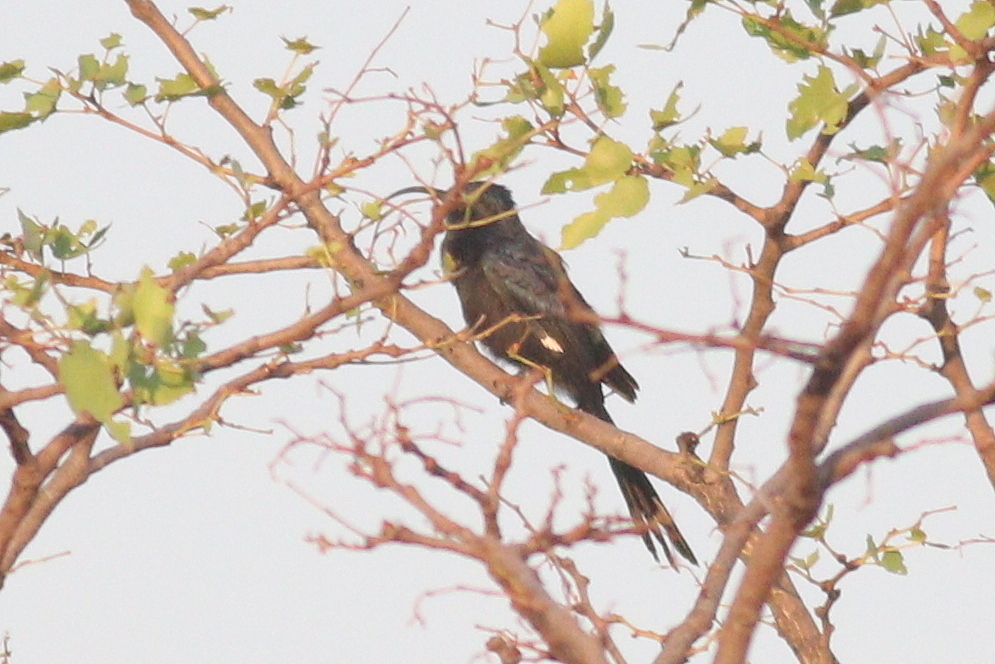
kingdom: Animalia
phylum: Chordata
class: Aves
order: Bucerotiformes
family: Phoeniculidae
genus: Rhinopomastus
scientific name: Rhinopomastus cyanomelas
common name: Common scimitarbill
